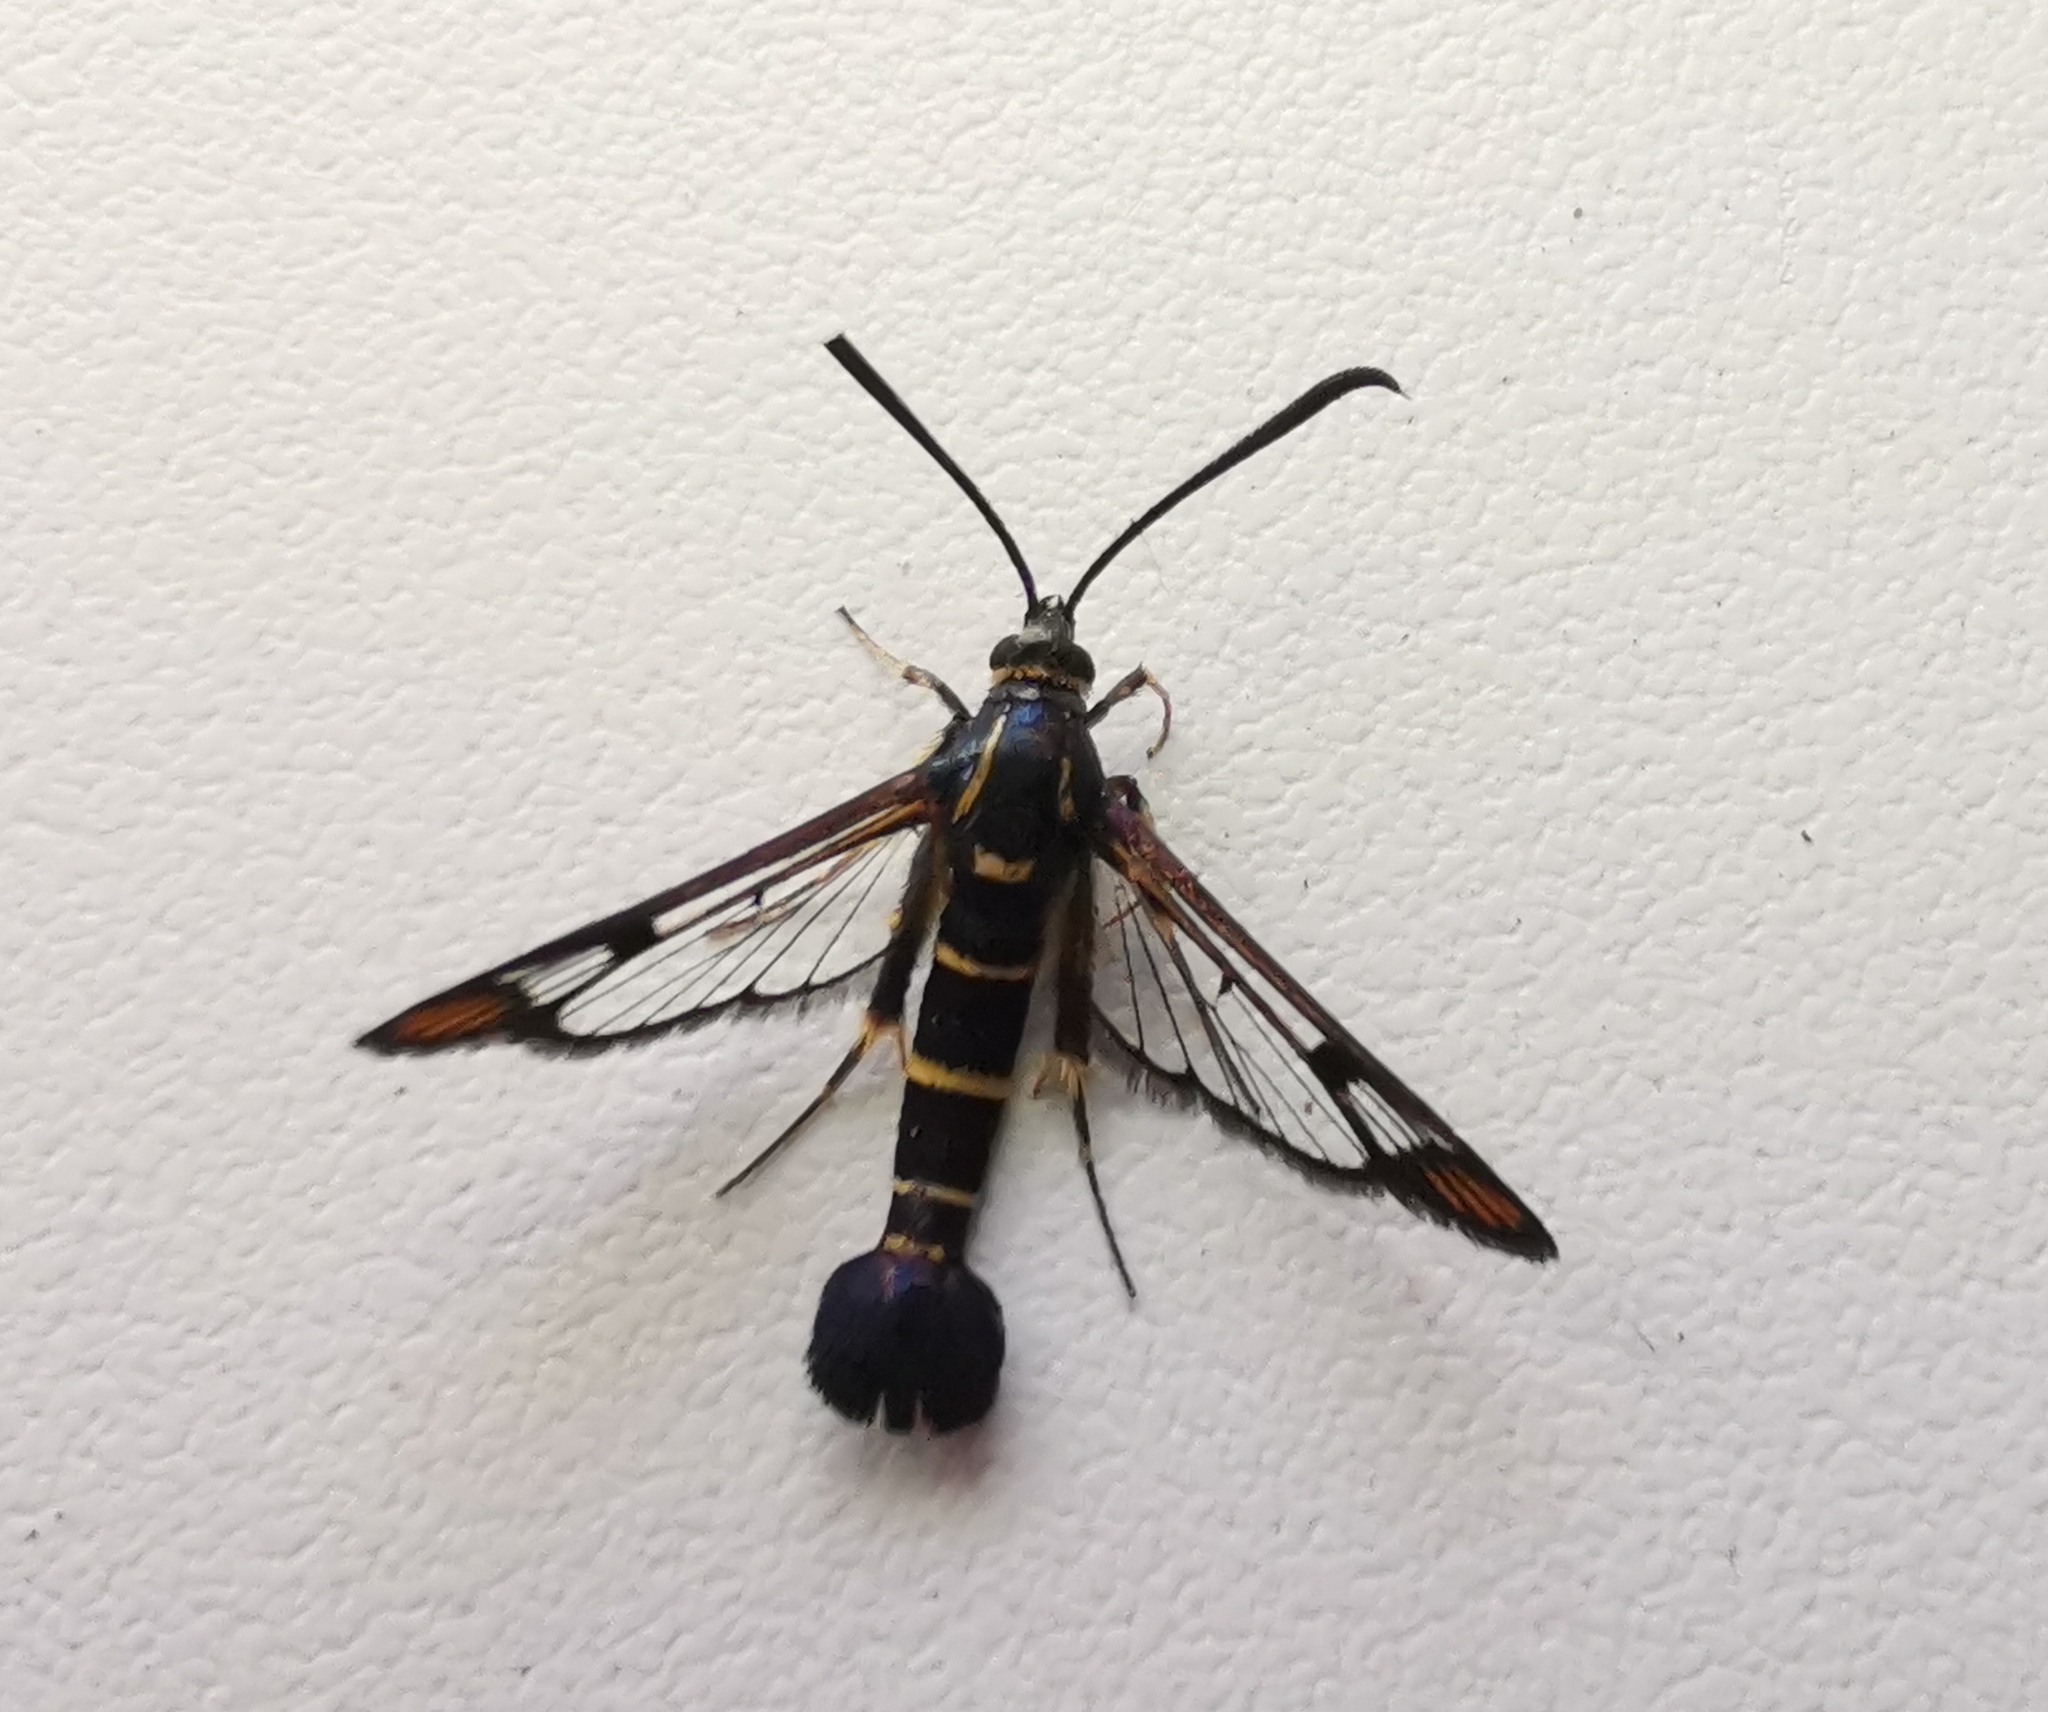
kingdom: Animalia
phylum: Arthropoda
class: Insecta
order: Lepidoptera
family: Sesiidae
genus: Synanthedon
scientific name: Synanthedon conopiformis
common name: Dale's oak clearwing
